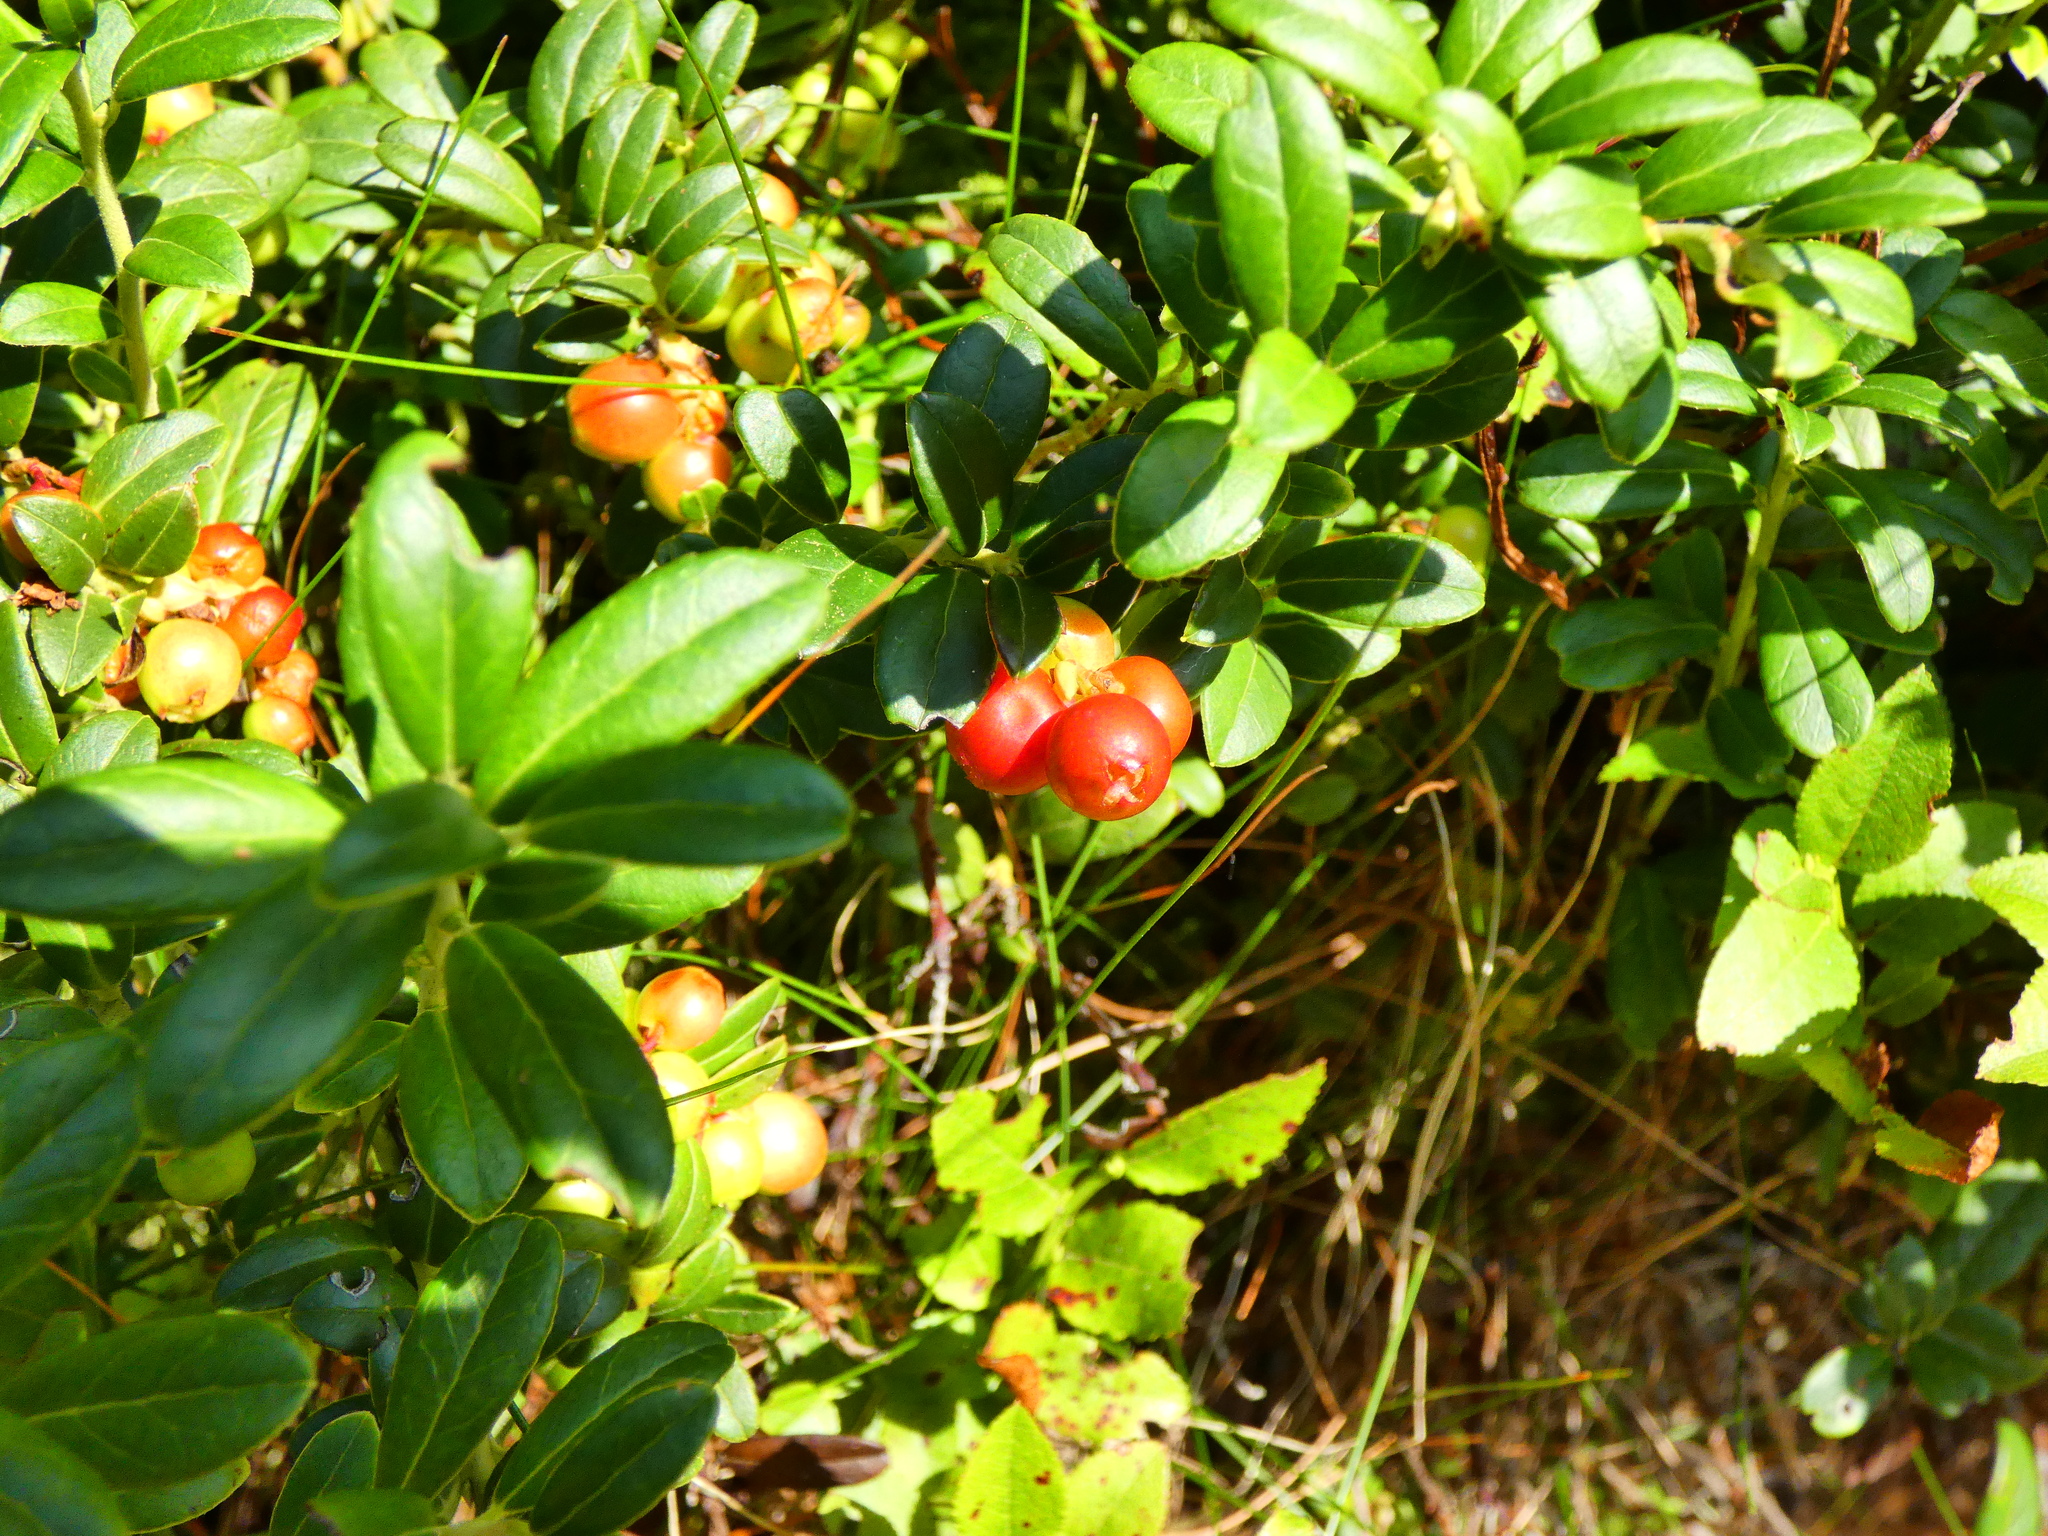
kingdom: Plantae
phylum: Tracheophyta
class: Magnoliopsida
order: Ericales
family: Ericaceae
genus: Vaccinium
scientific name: Vaccinium vitis-idaea
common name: Cowberry
